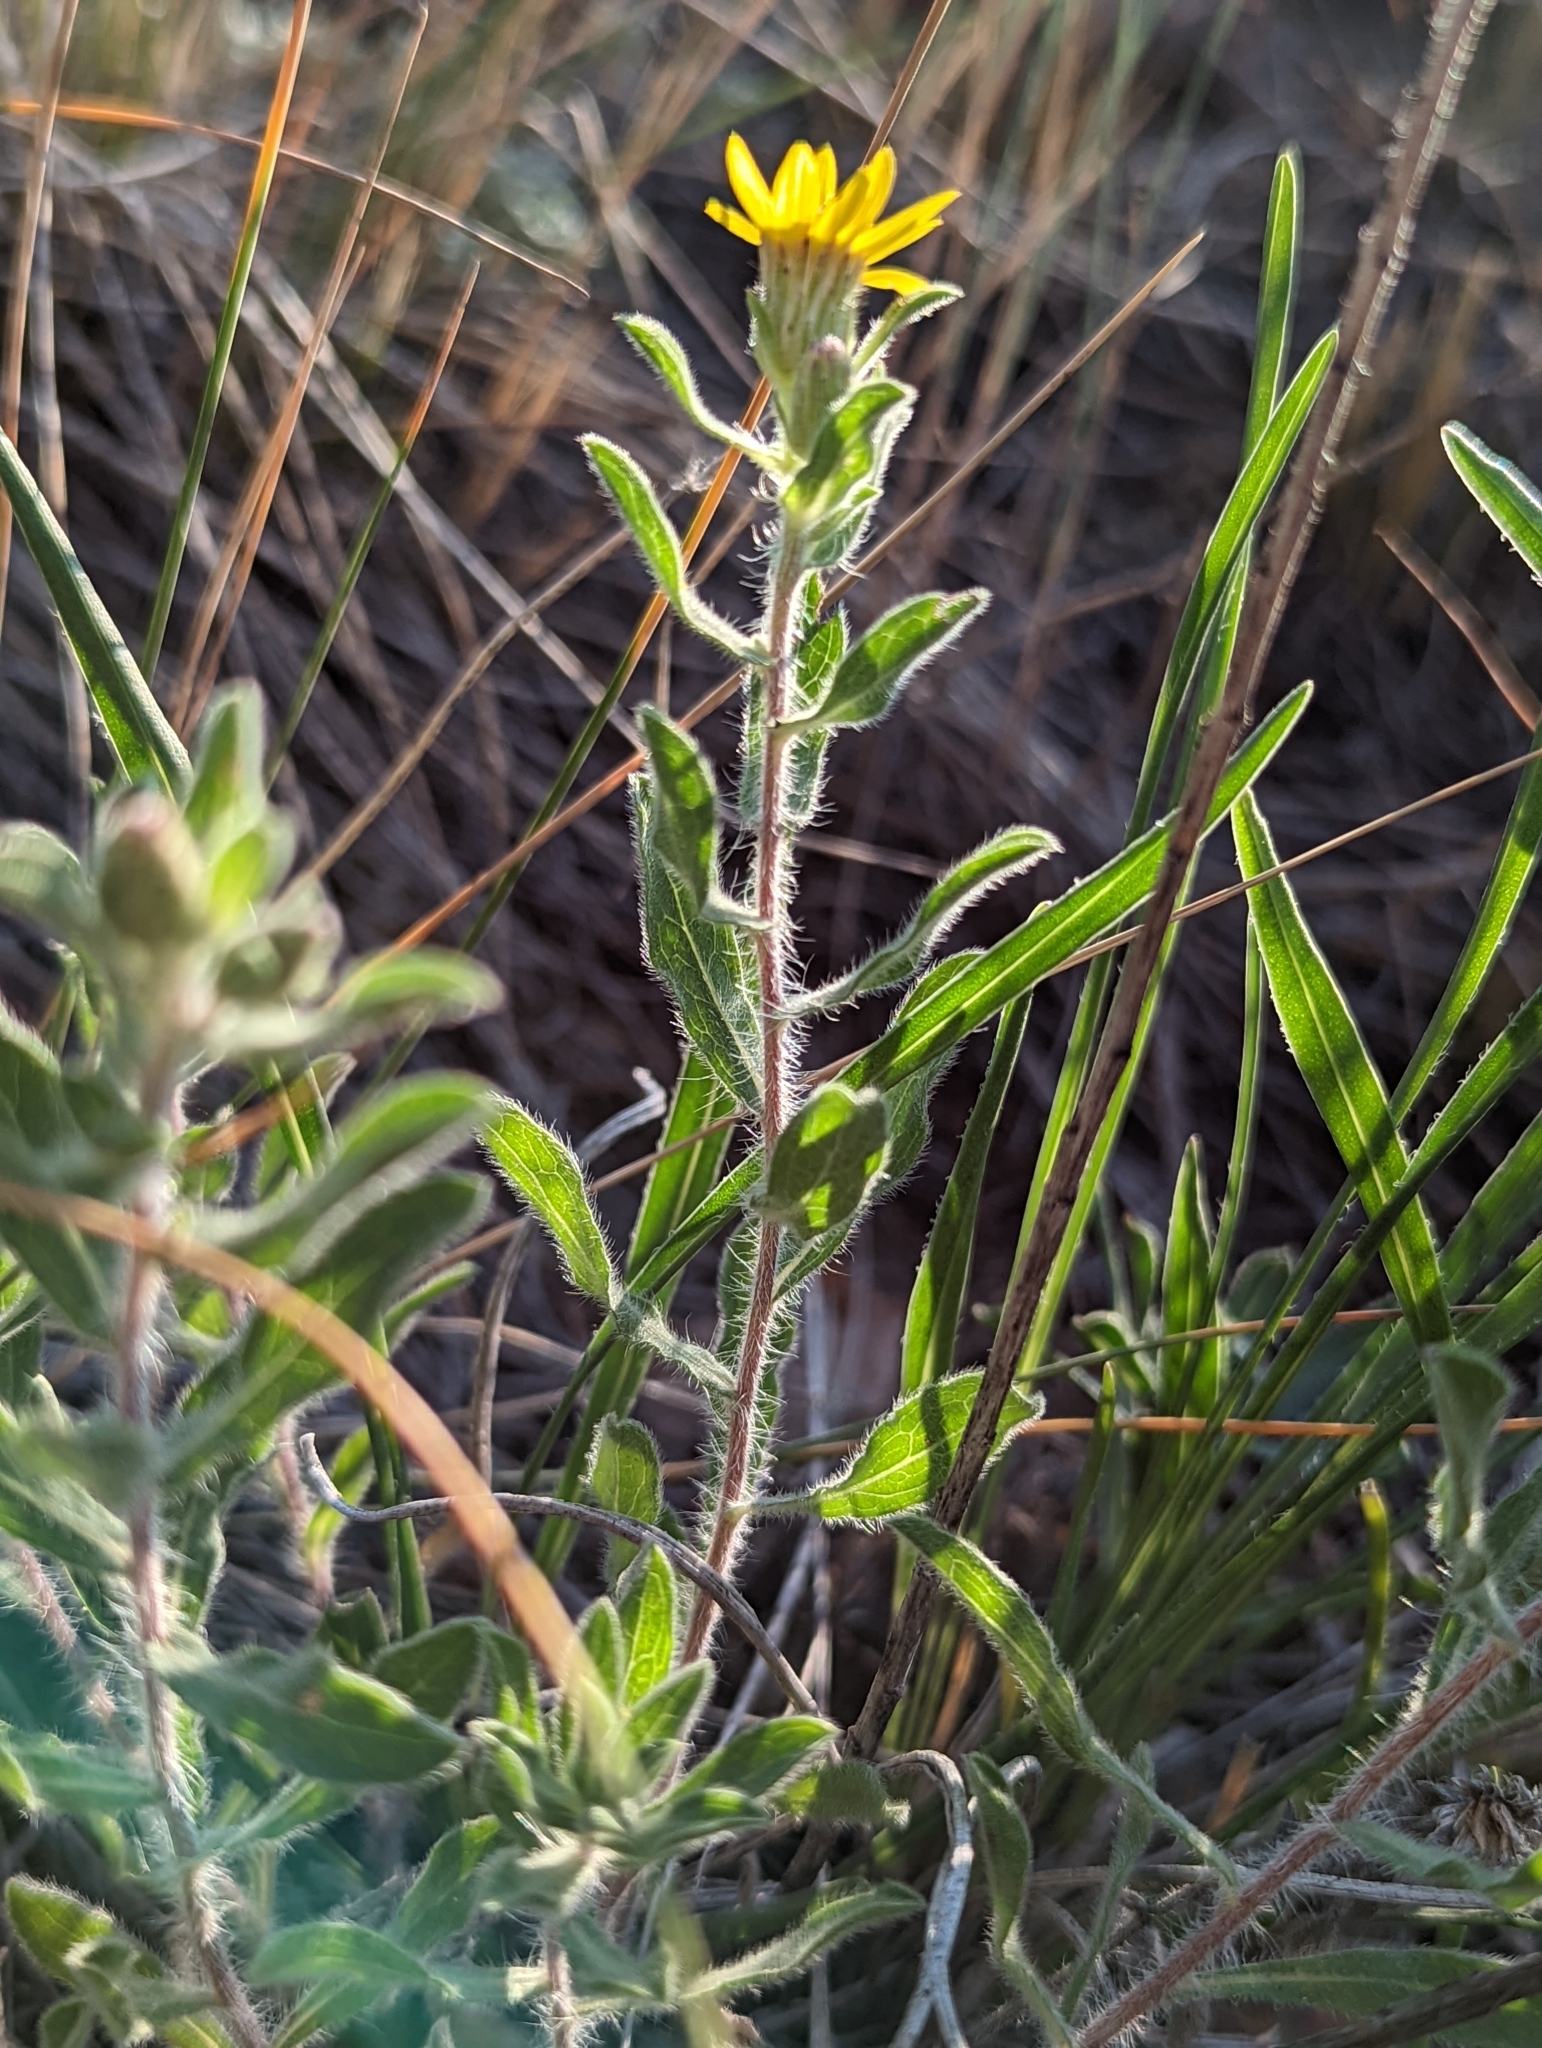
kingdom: Plantae
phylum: Tracheophyta
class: Magnoliopsida
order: Asterales
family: Asteraceae
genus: Heterotheca
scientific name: Heterotheca villosa
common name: Hairy false goldenaster
